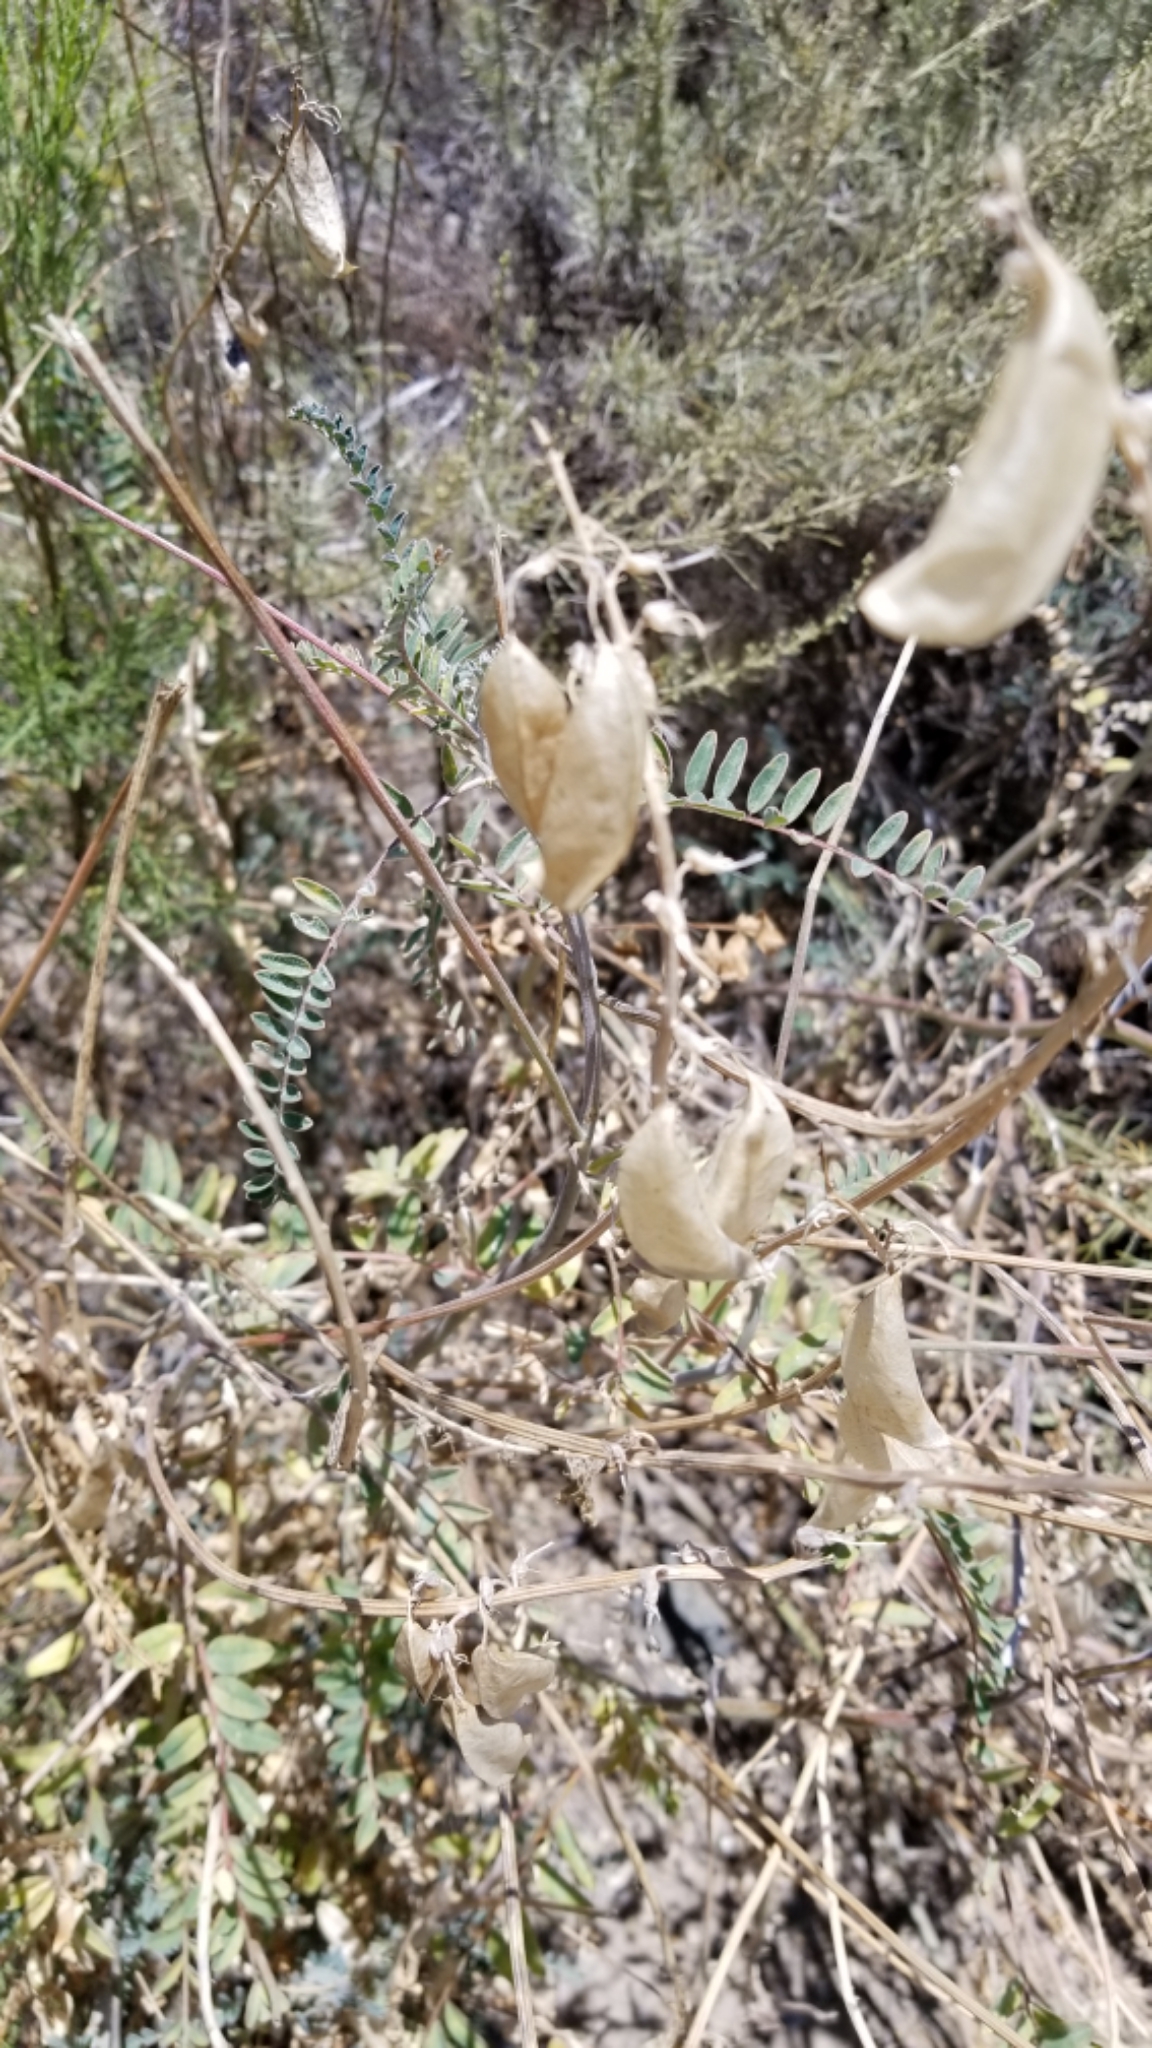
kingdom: Plantae
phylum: Tracheophyta
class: Magnoliopsida
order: Fabales
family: Fabaceae
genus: Astragalus
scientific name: Astragalus trichopodus
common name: Santa barbara milk-vetch
